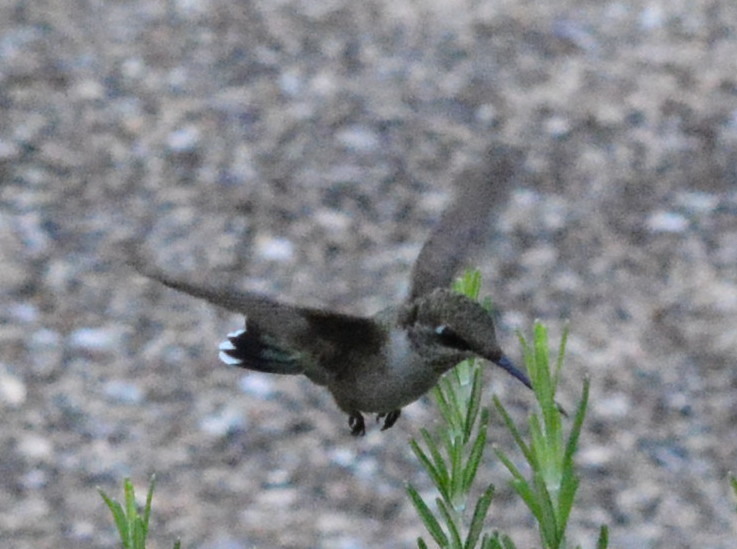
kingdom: Animalia
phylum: Chordata
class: Aves
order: Apodiformes
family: Trochilidae
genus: Archilochus
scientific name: Archilochus colubris
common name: Ruby-throated hummingbird
